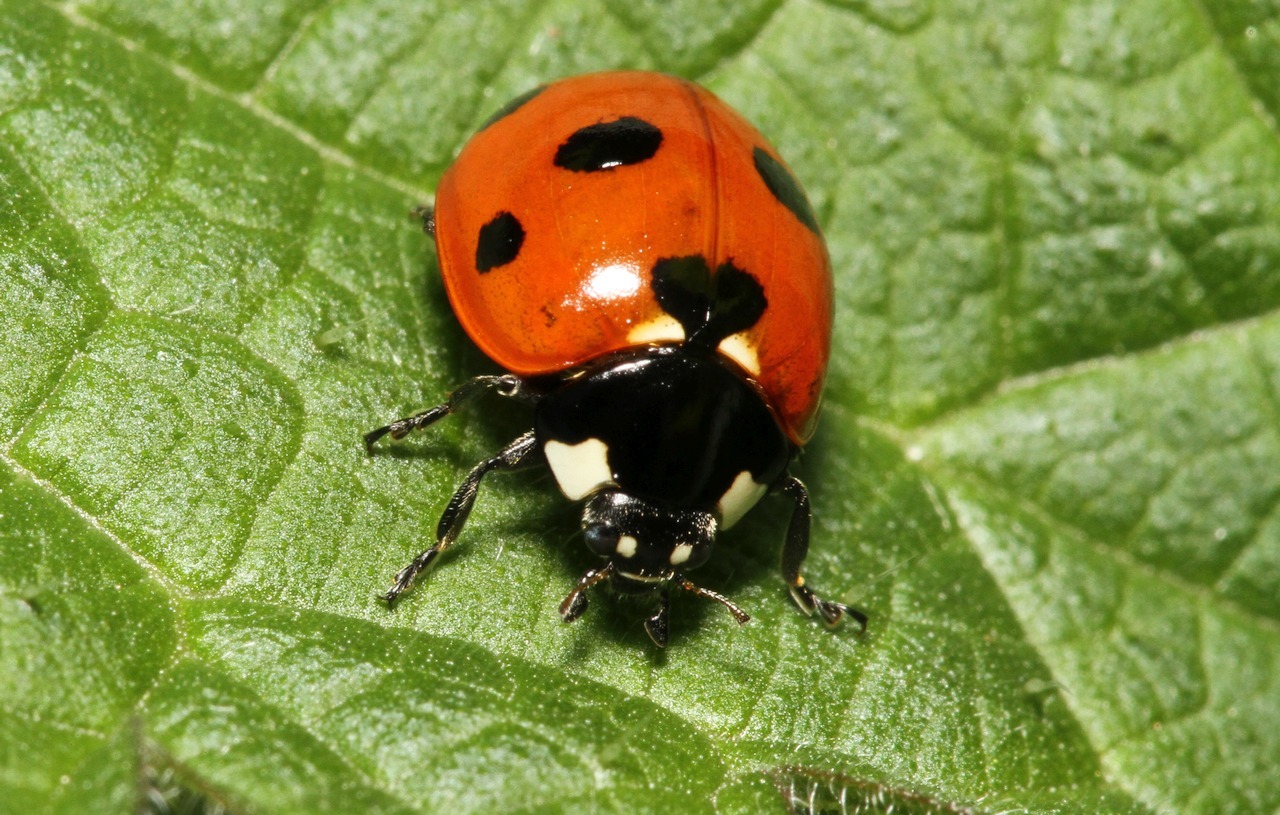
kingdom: Animalia
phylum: Arthropoda
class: Insecta
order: Coleoptera
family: Coccinellidae
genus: Coccinella
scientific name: Coccinella septempunctata
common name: Sevenspotted lady beetle
